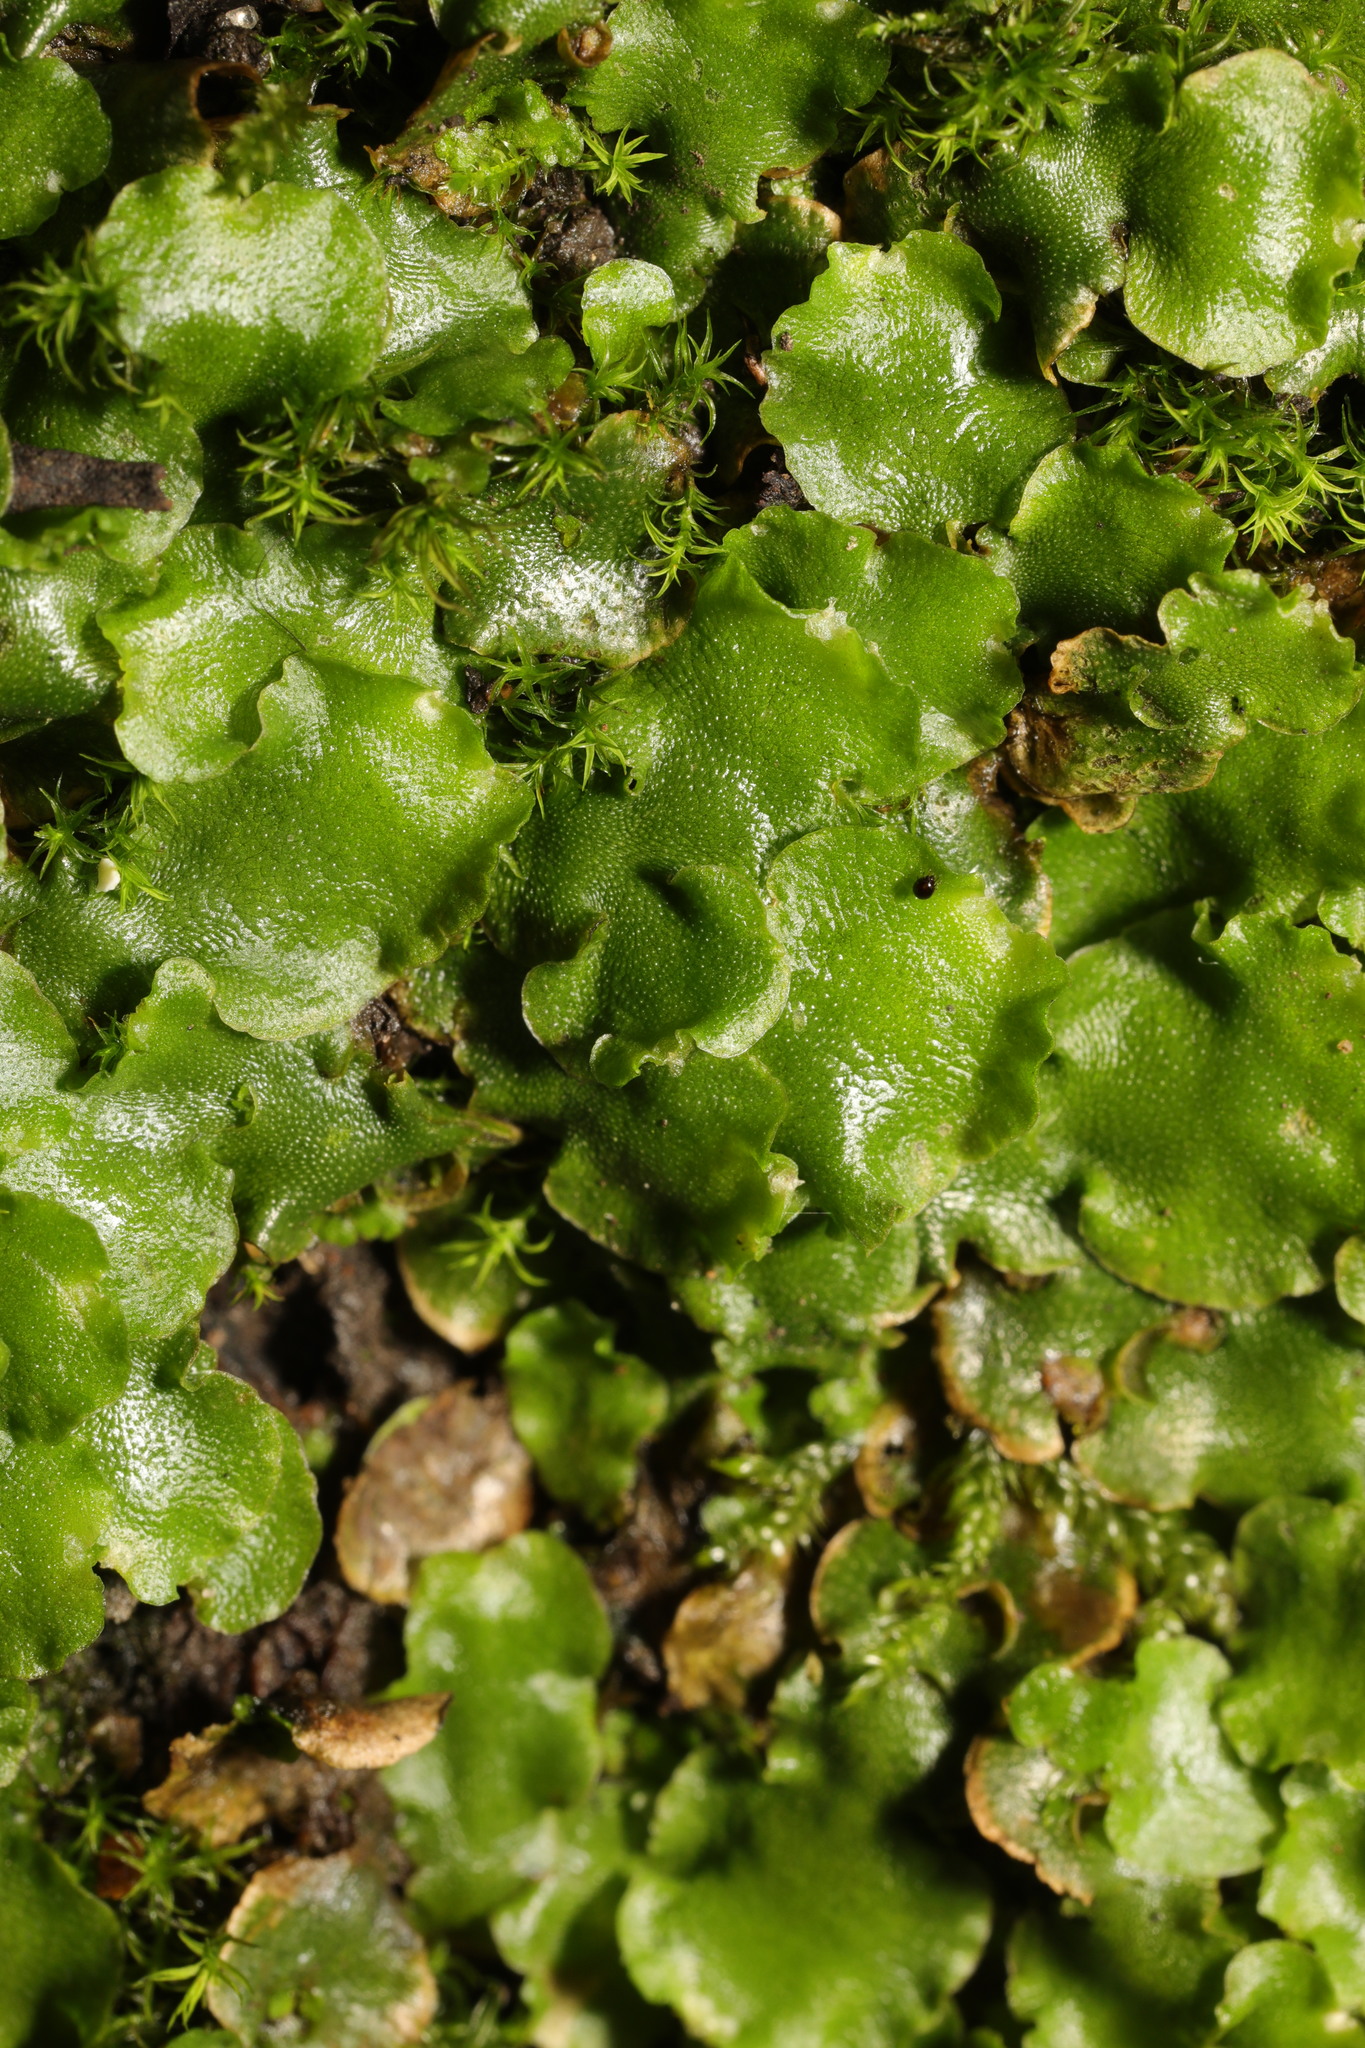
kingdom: Plantae
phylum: Marchantiophyta
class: Marchantiopsida
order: Lunulariales
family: Lunulariaceae
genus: Lunularia
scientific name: Lunularia cruciata
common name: Crescent-cup liverwort
